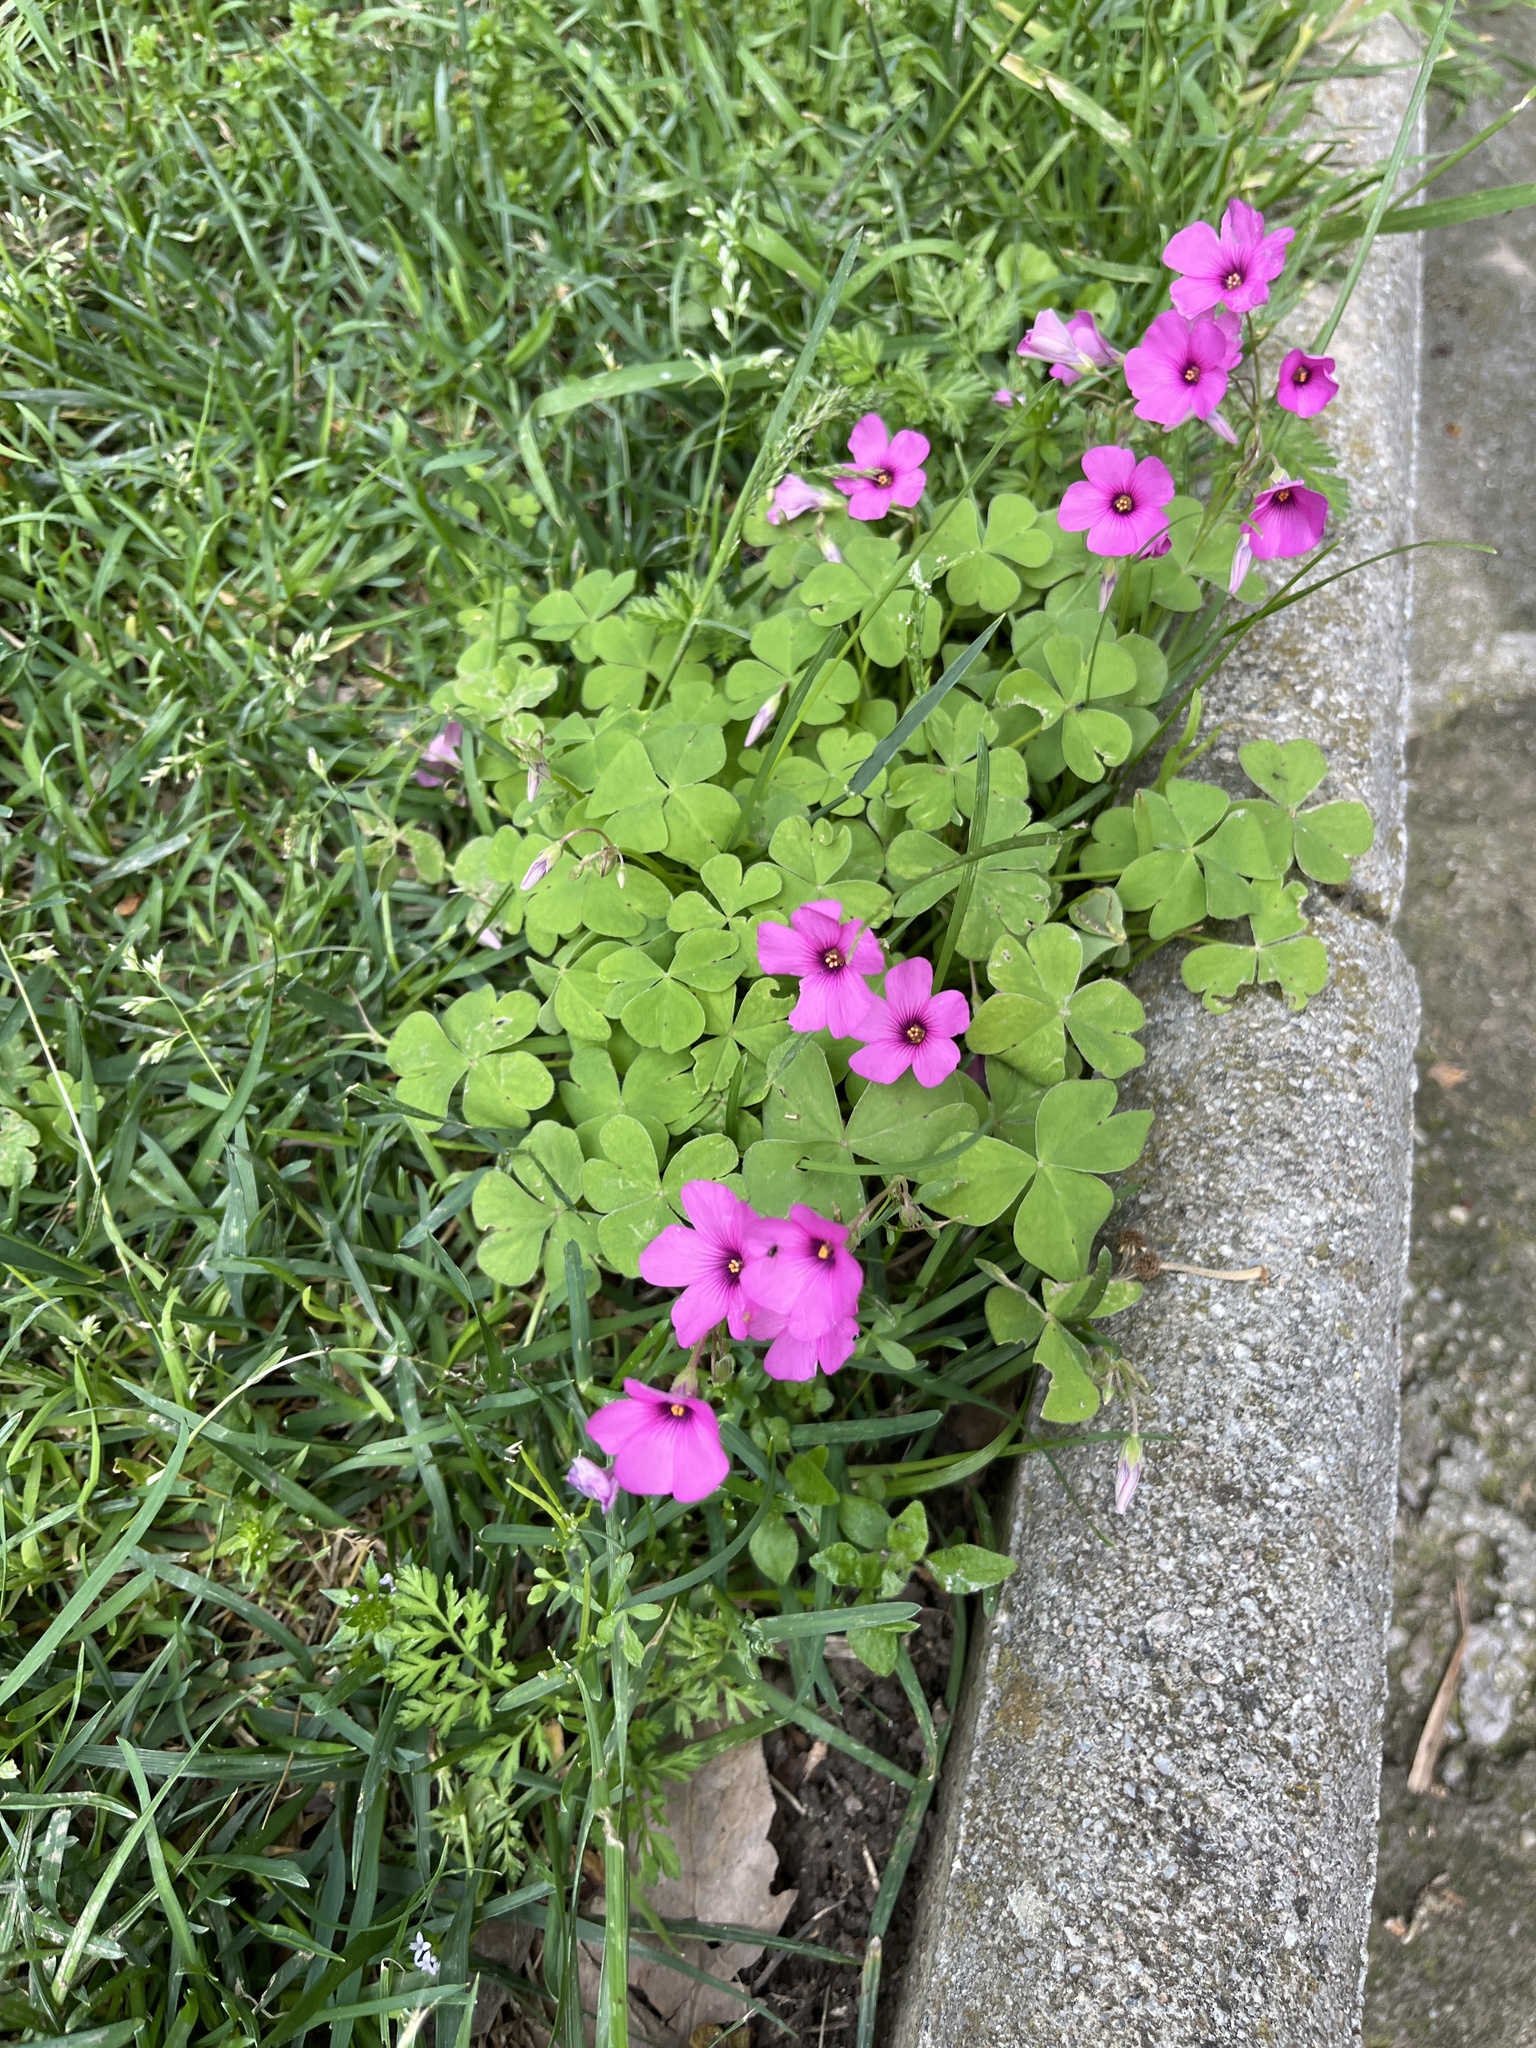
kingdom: Plantae
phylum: Tracheophyta
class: Magnoliopsida
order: Oxalidales
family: Oxalidaceae
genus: Oxalis
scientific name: Oxalis articulata
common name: Pink-sorrel
